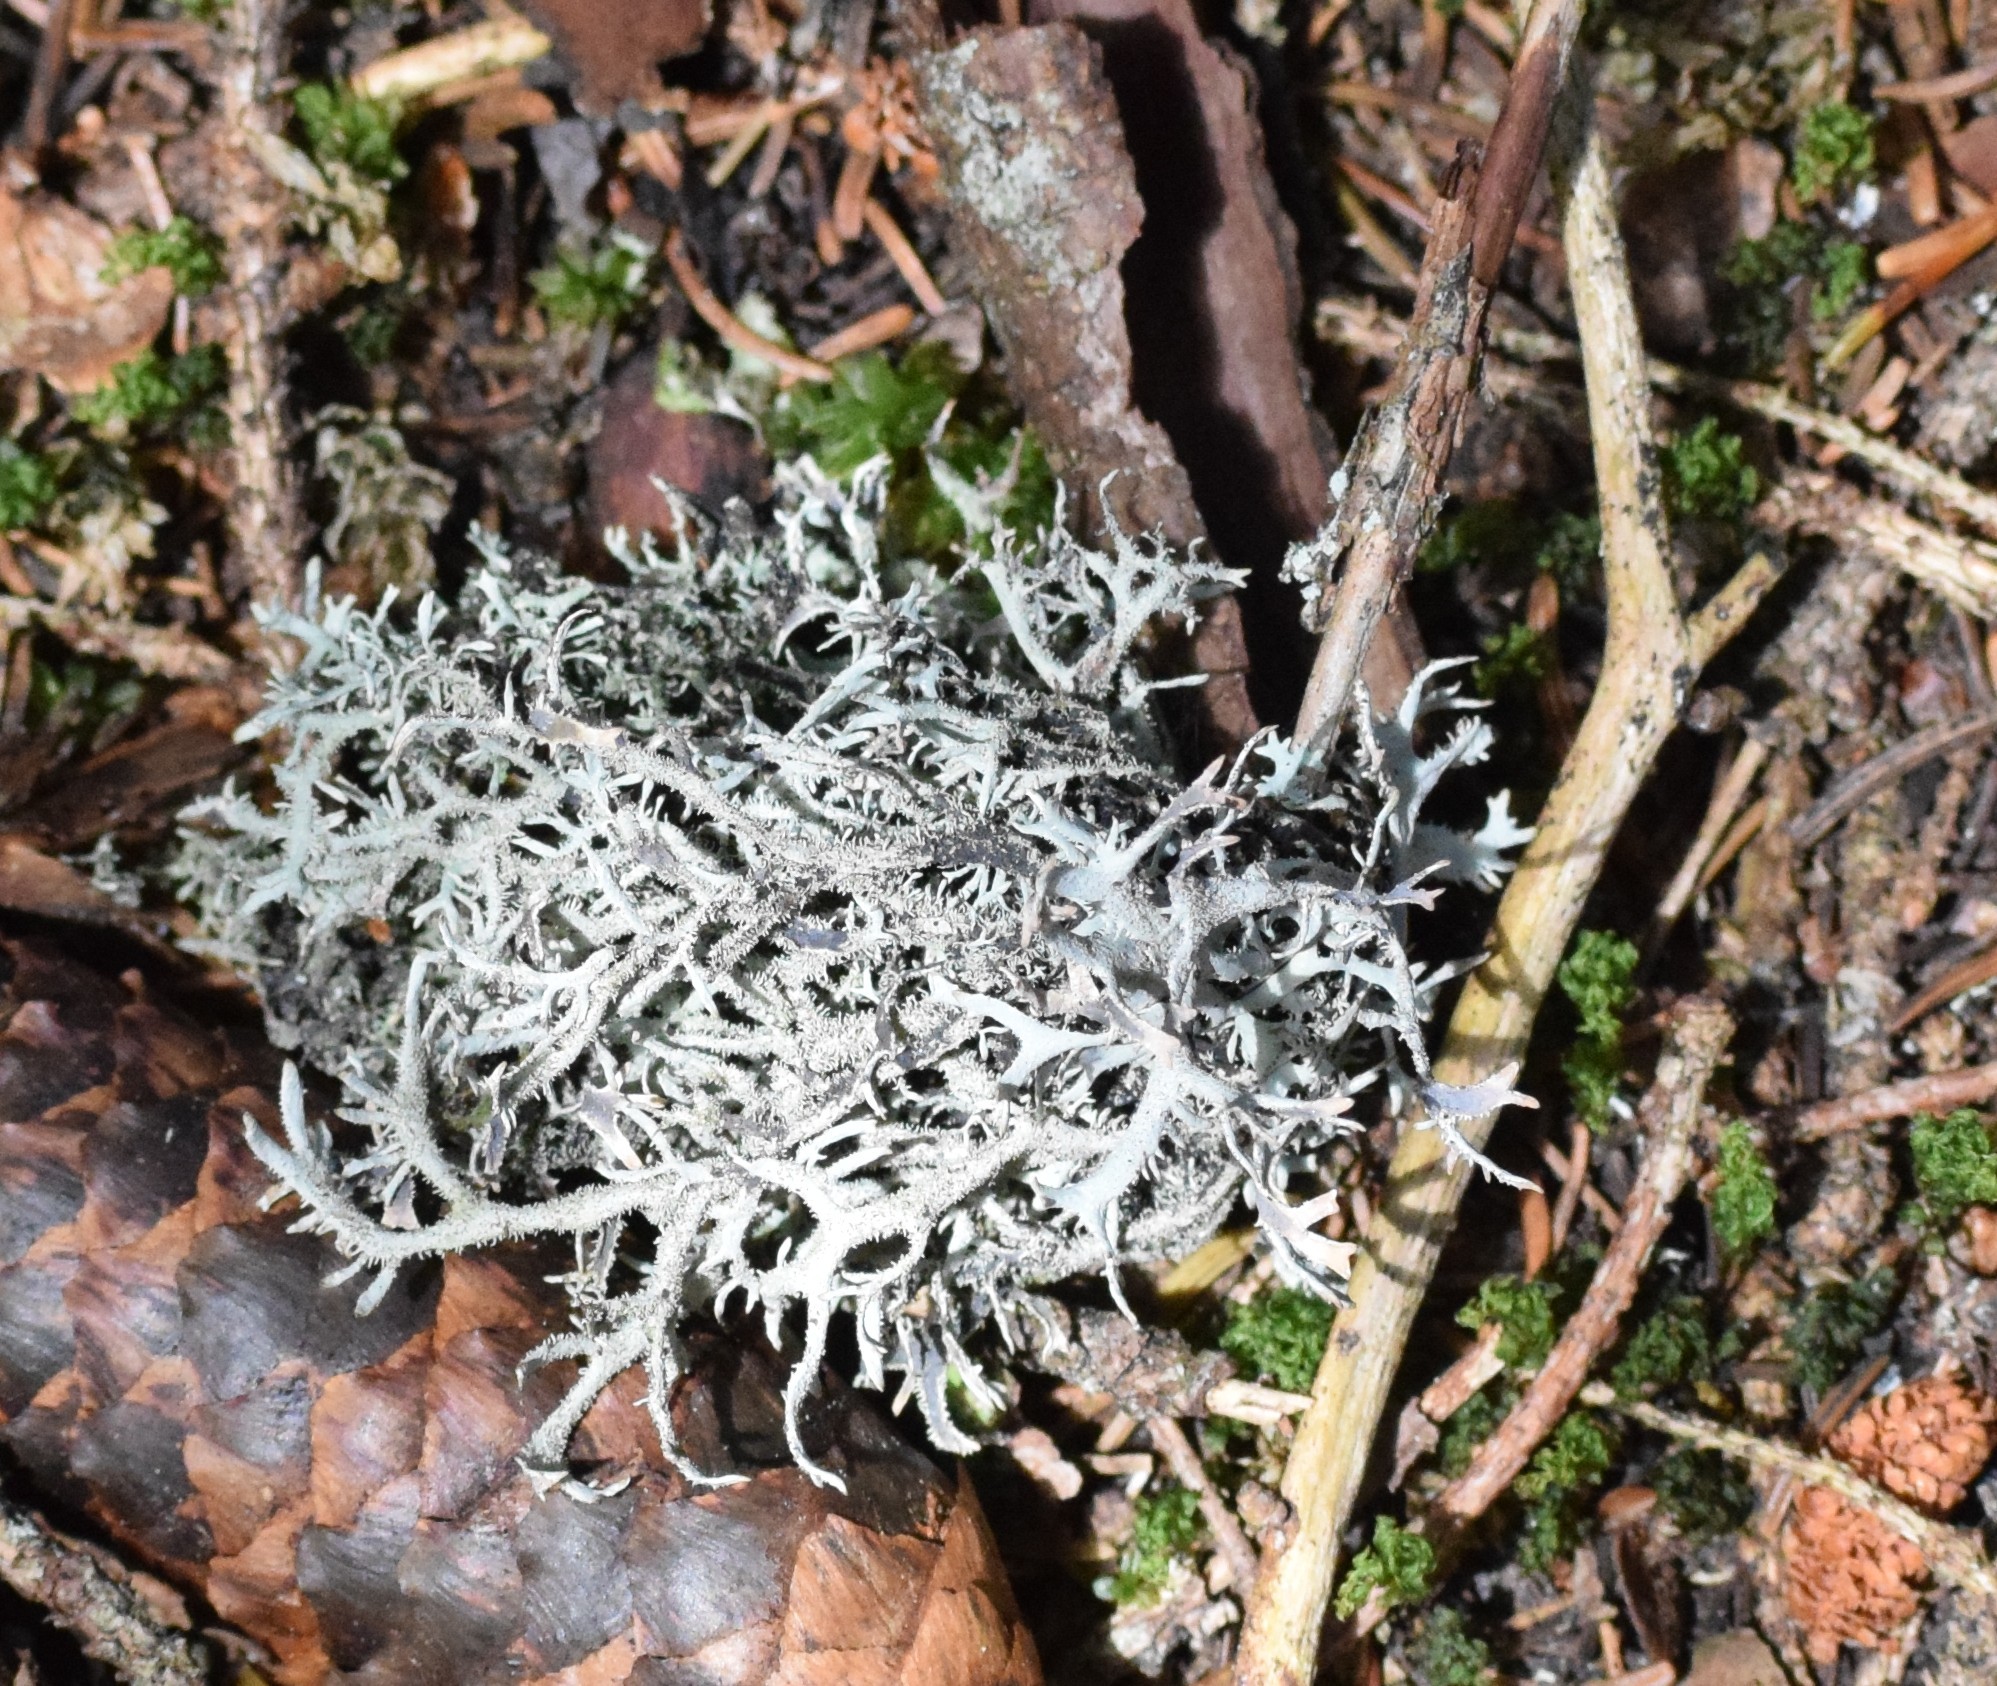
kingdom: Fungi
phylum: Ascomycota
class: Lecanoromycetes
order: Lecanorales
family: Parmeliaceae
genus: Pseudevernia
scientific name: Pseudevernia furfuracea
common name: Tree moss
